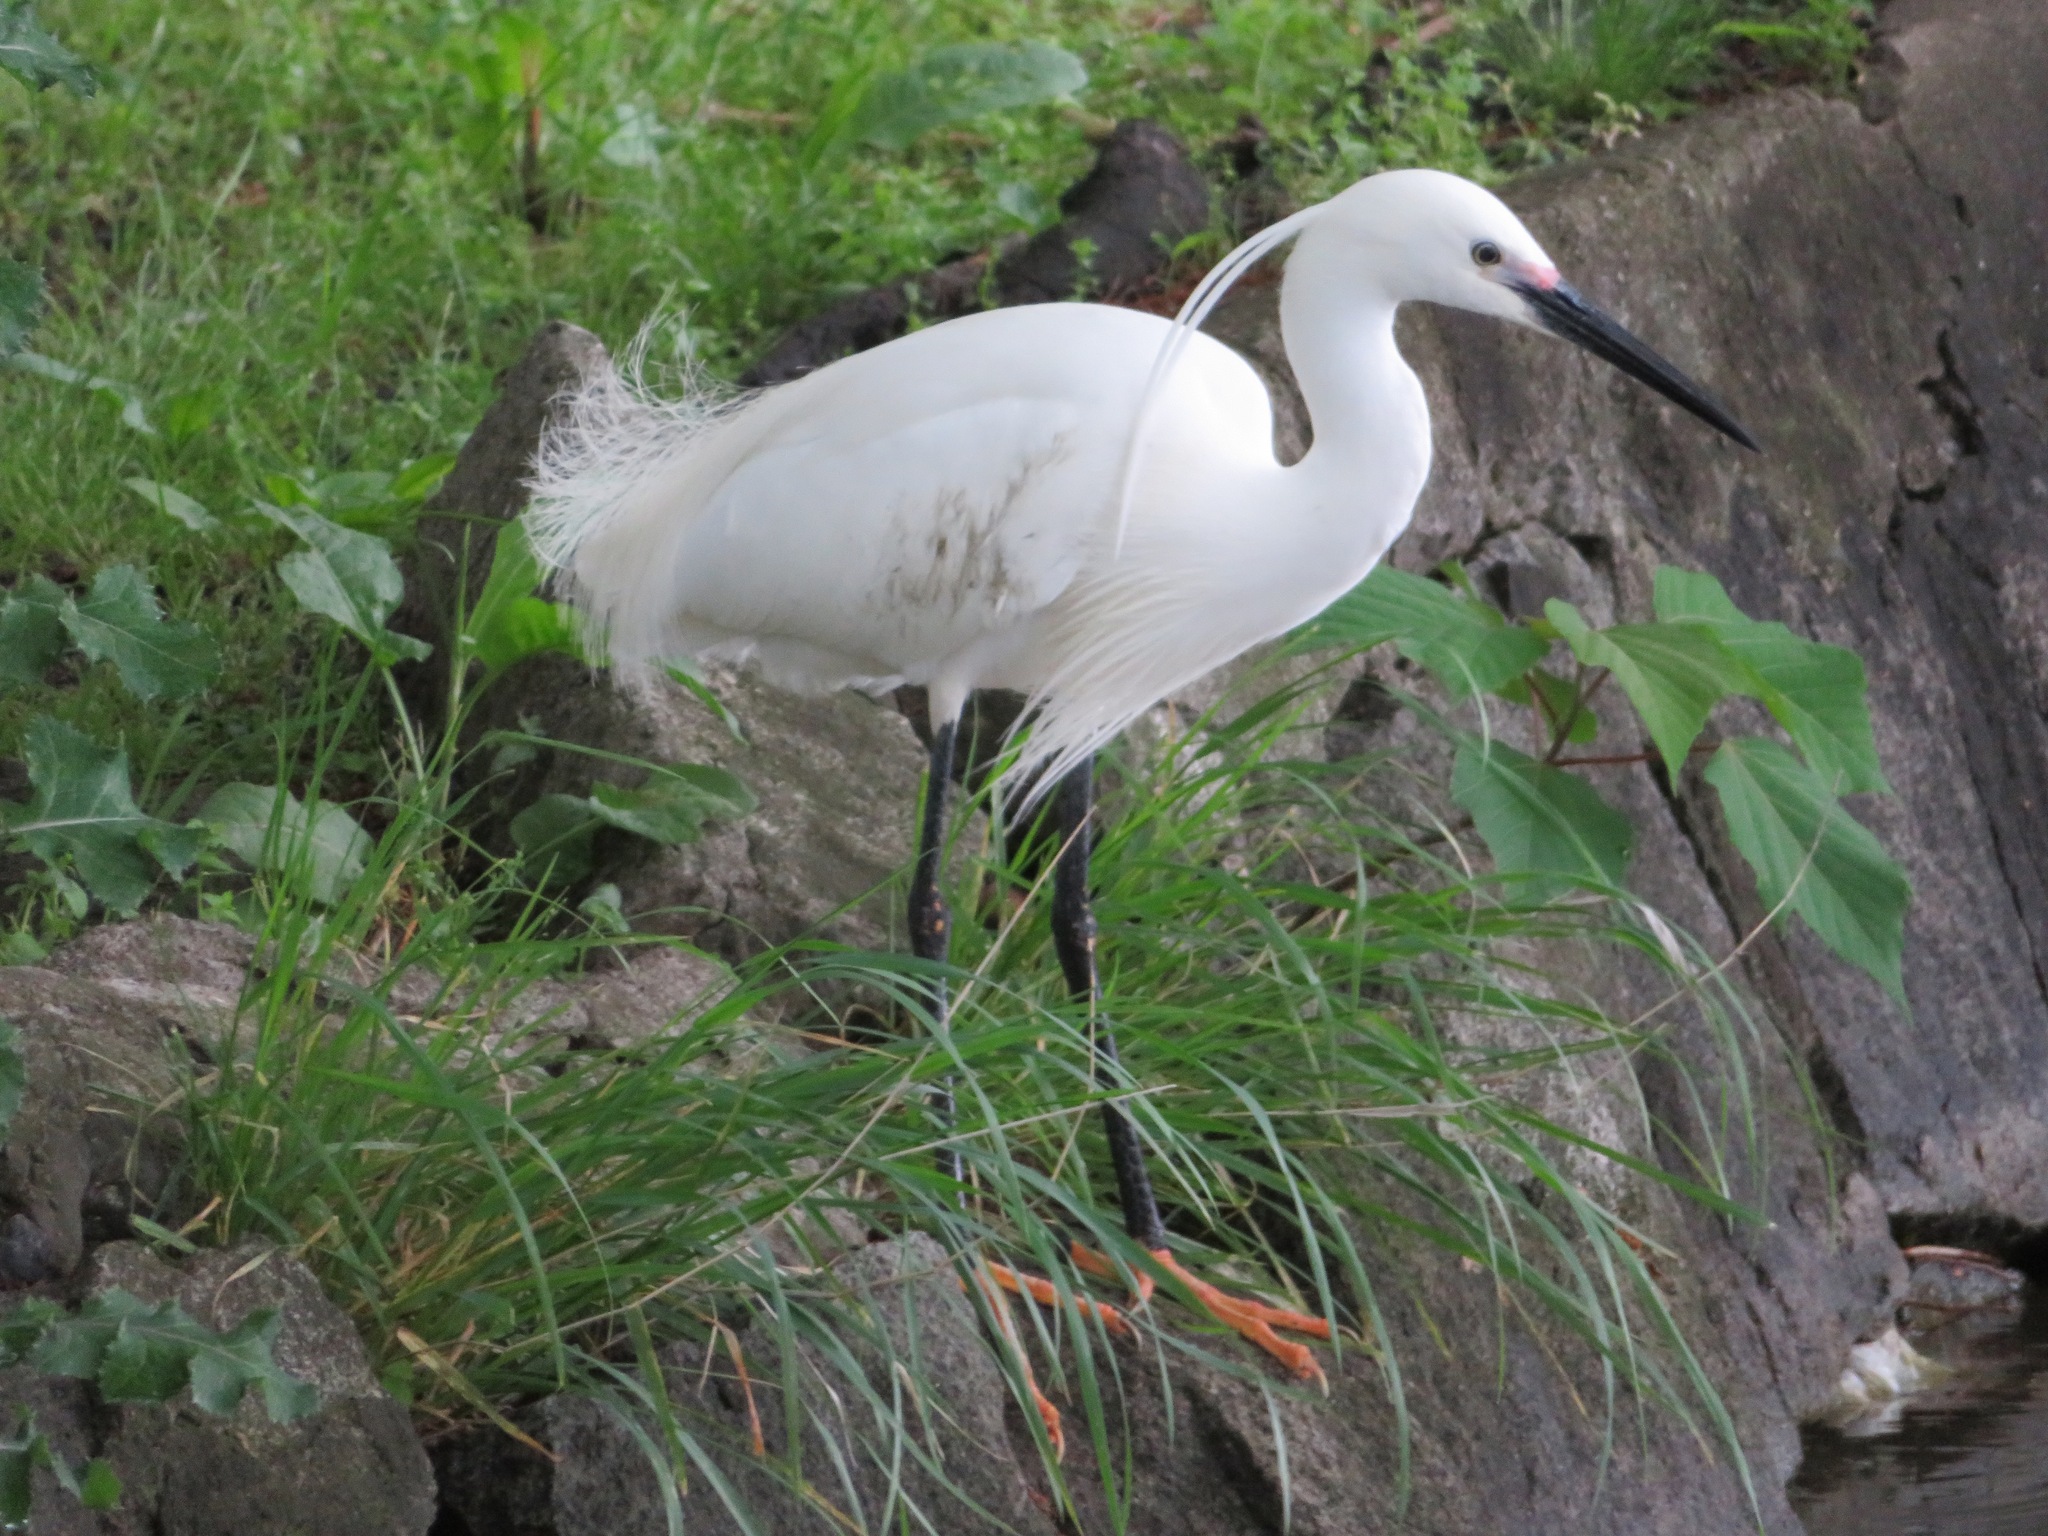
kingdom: Animalia
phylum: Chordata
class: Aves
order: Pelecaniformes
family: Ardeidae
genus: Egretta
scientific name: Egretta garzetta
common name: Little egret
